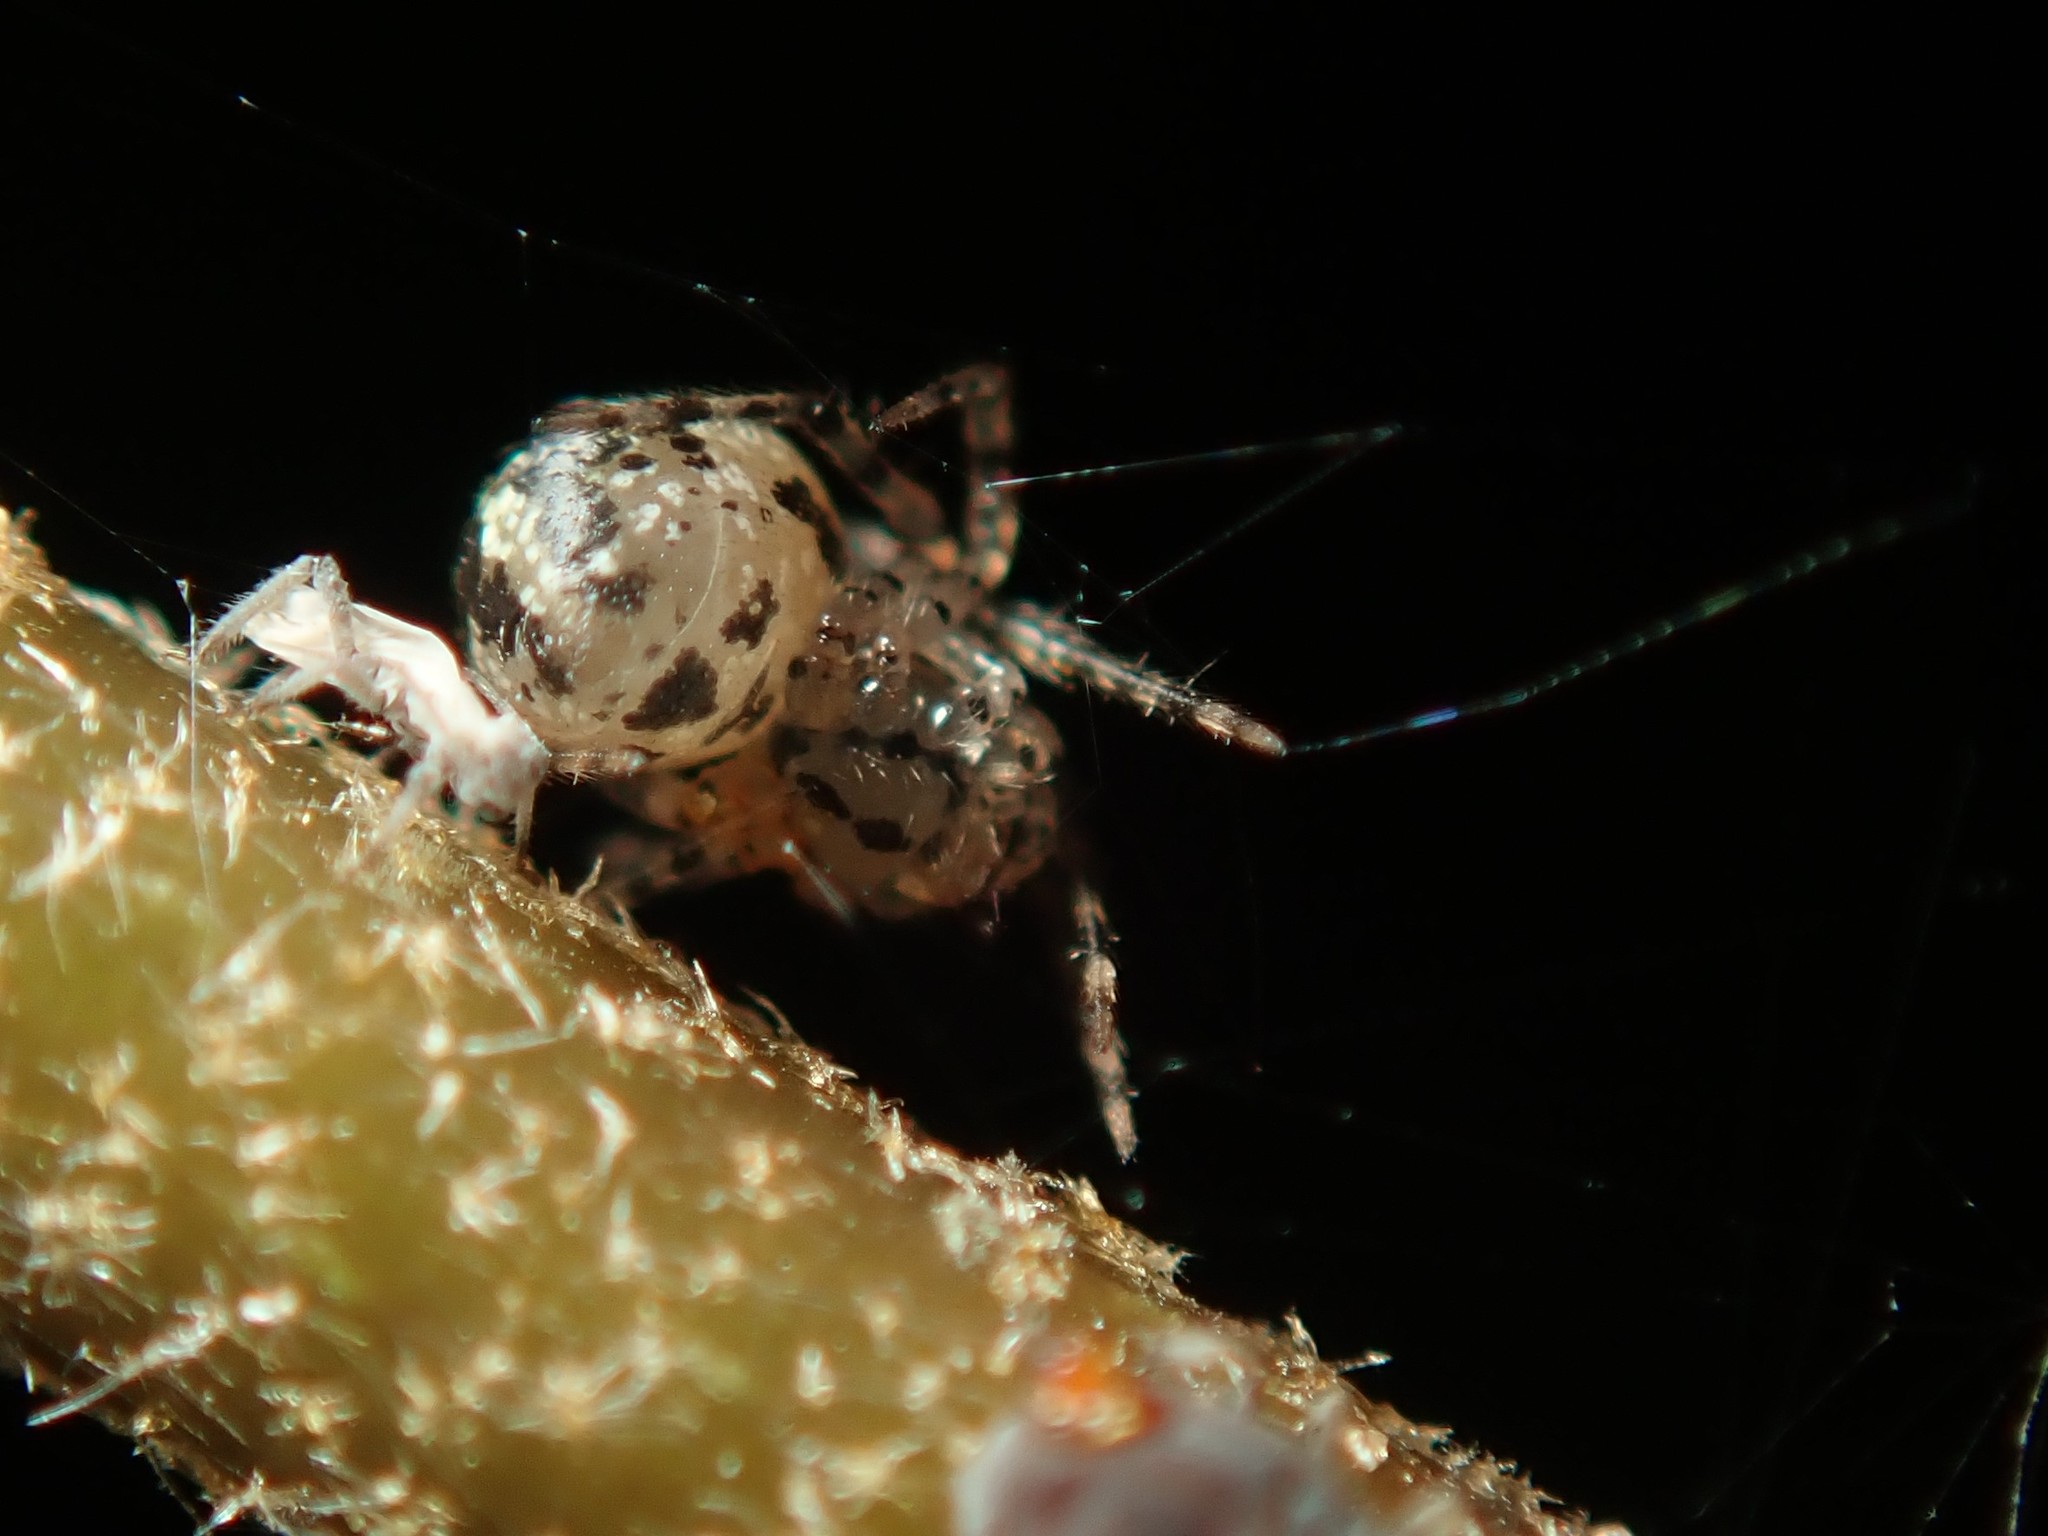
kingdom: Animalia
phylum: Arthropoda
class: Arachnida
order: Araneae
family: Scytodidae
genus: Scytodes
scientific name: Scytodes thoracica
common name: Spitting spider
